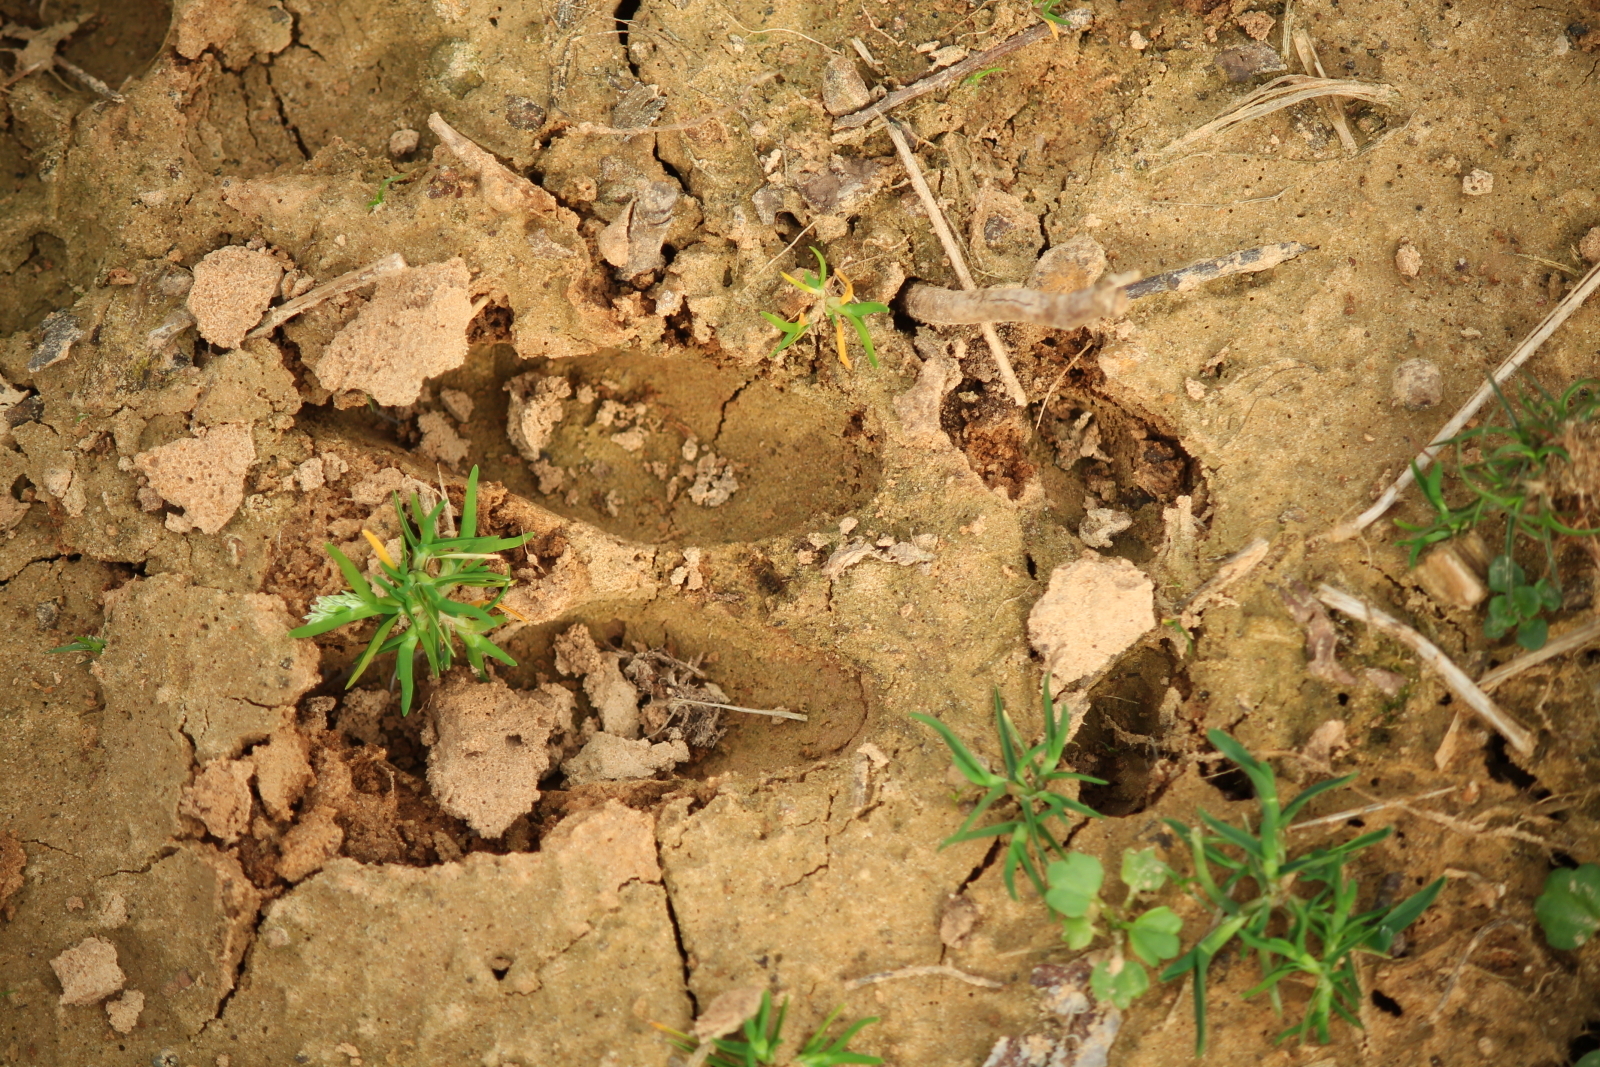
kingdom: Animalia
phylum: Chordata
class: Mammalia
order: Artiodactyla
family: Cervidae
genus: Odocoileus
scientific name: Odocoileus virginianus
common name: White-tailed deer
